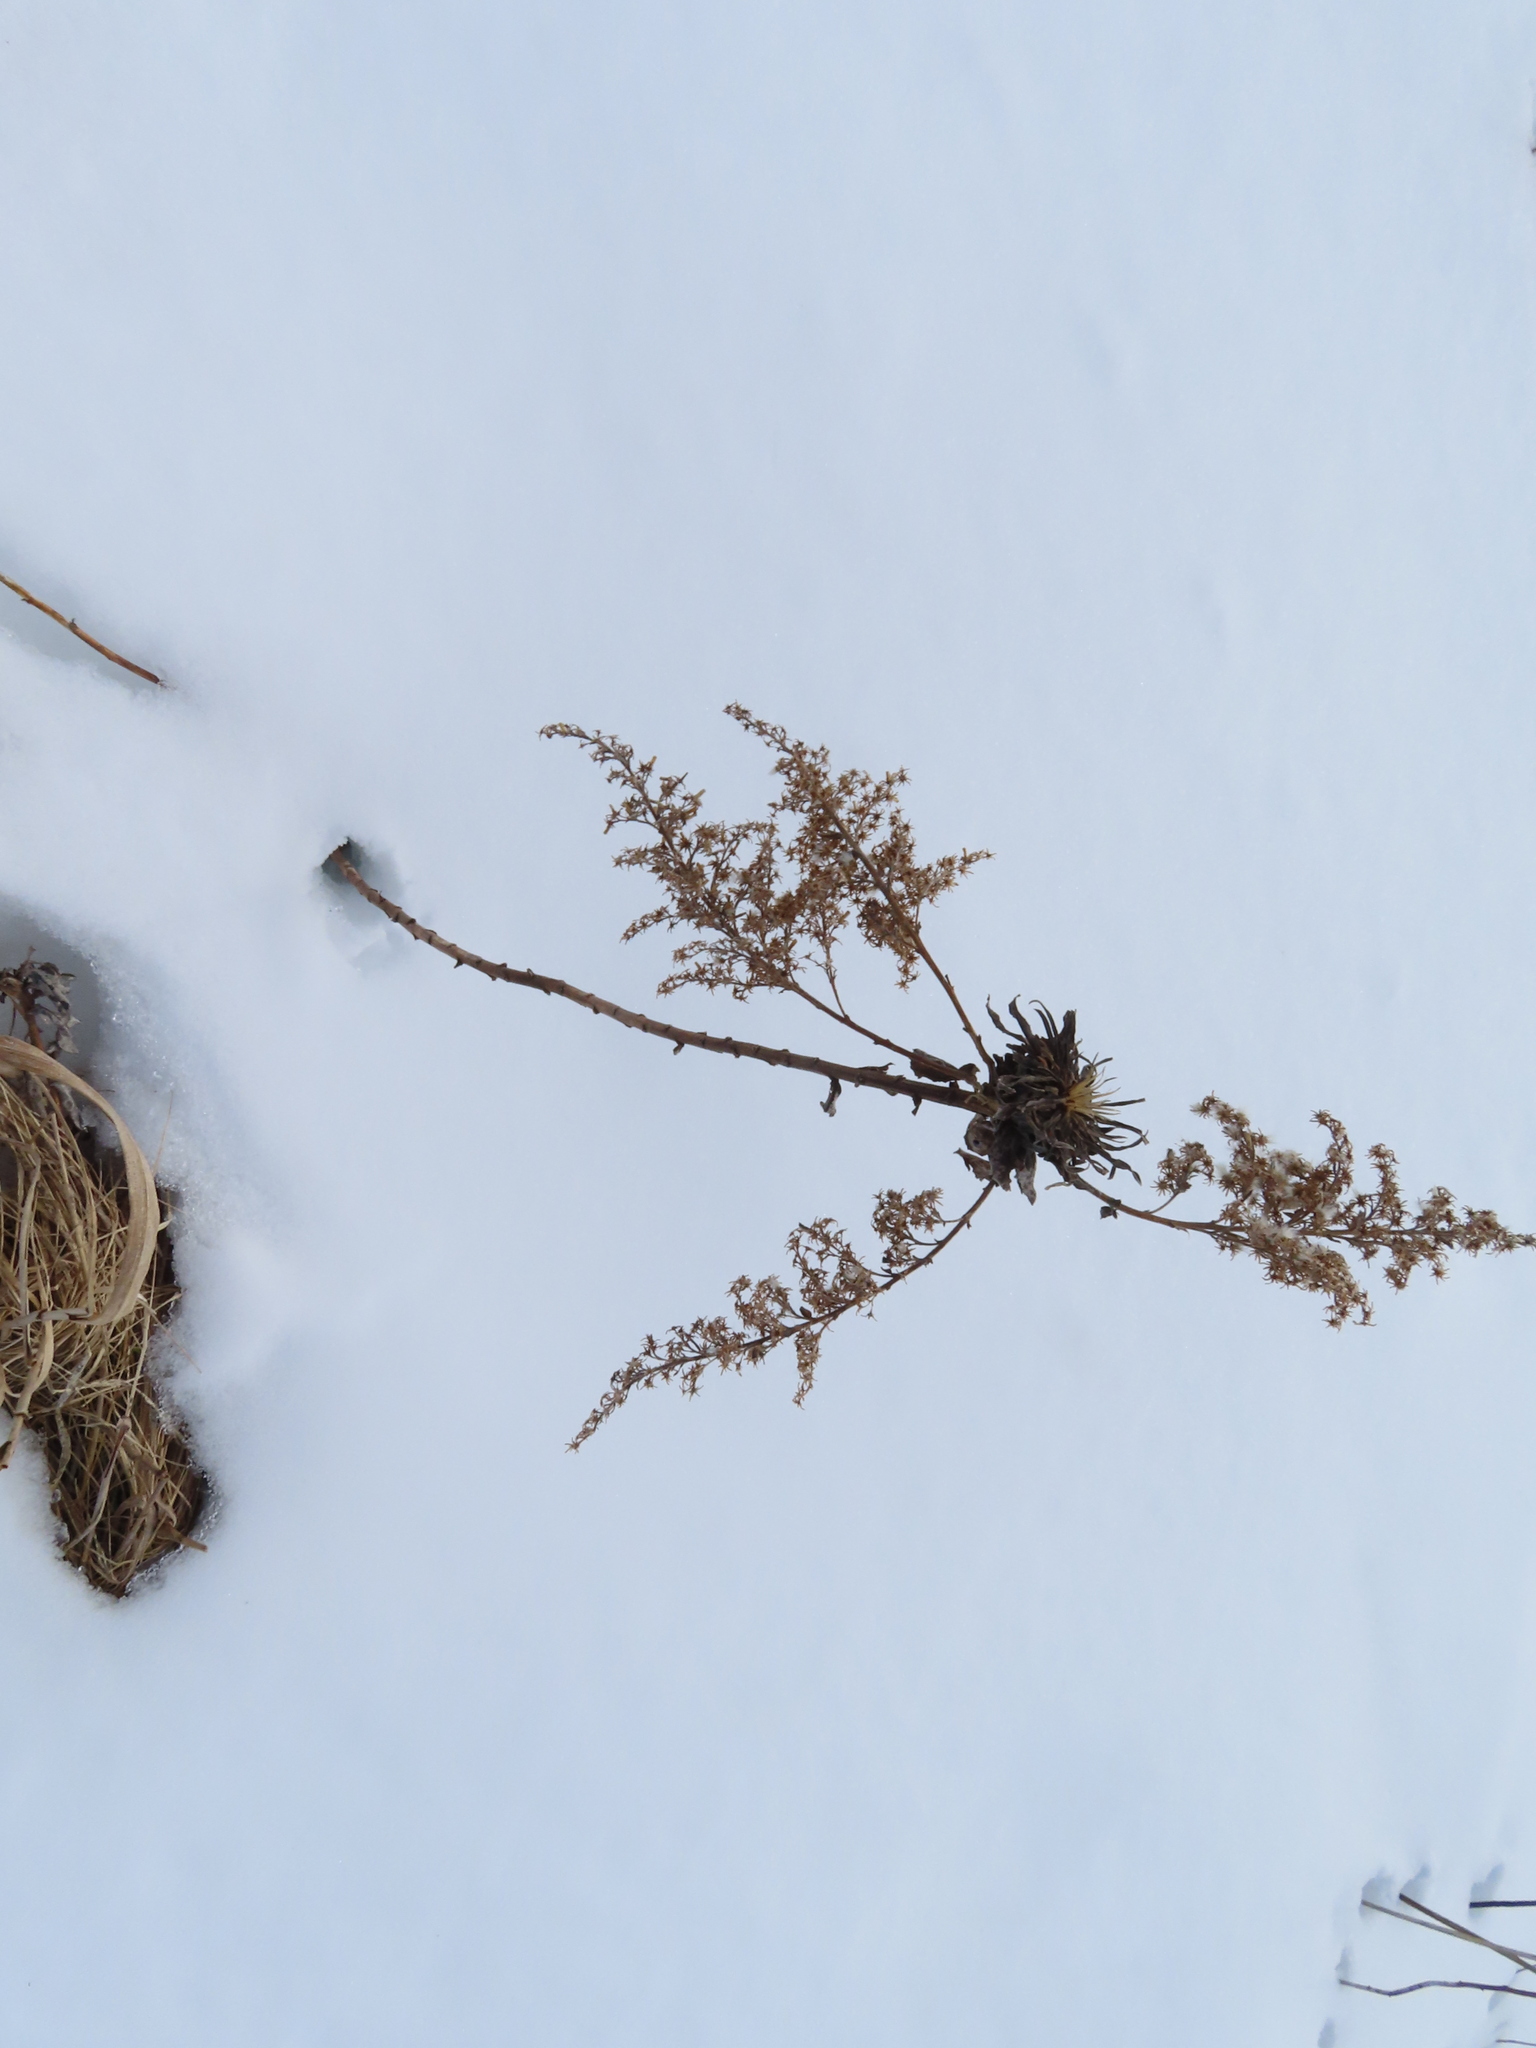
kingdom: Animalia
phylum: Arthropoda
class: Insecta
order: Diptera
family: Cecidomyiidae
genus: Rhopalomyia
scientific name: Rhopalomyia solidaginis
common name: Goldenrod bunch gall midge
